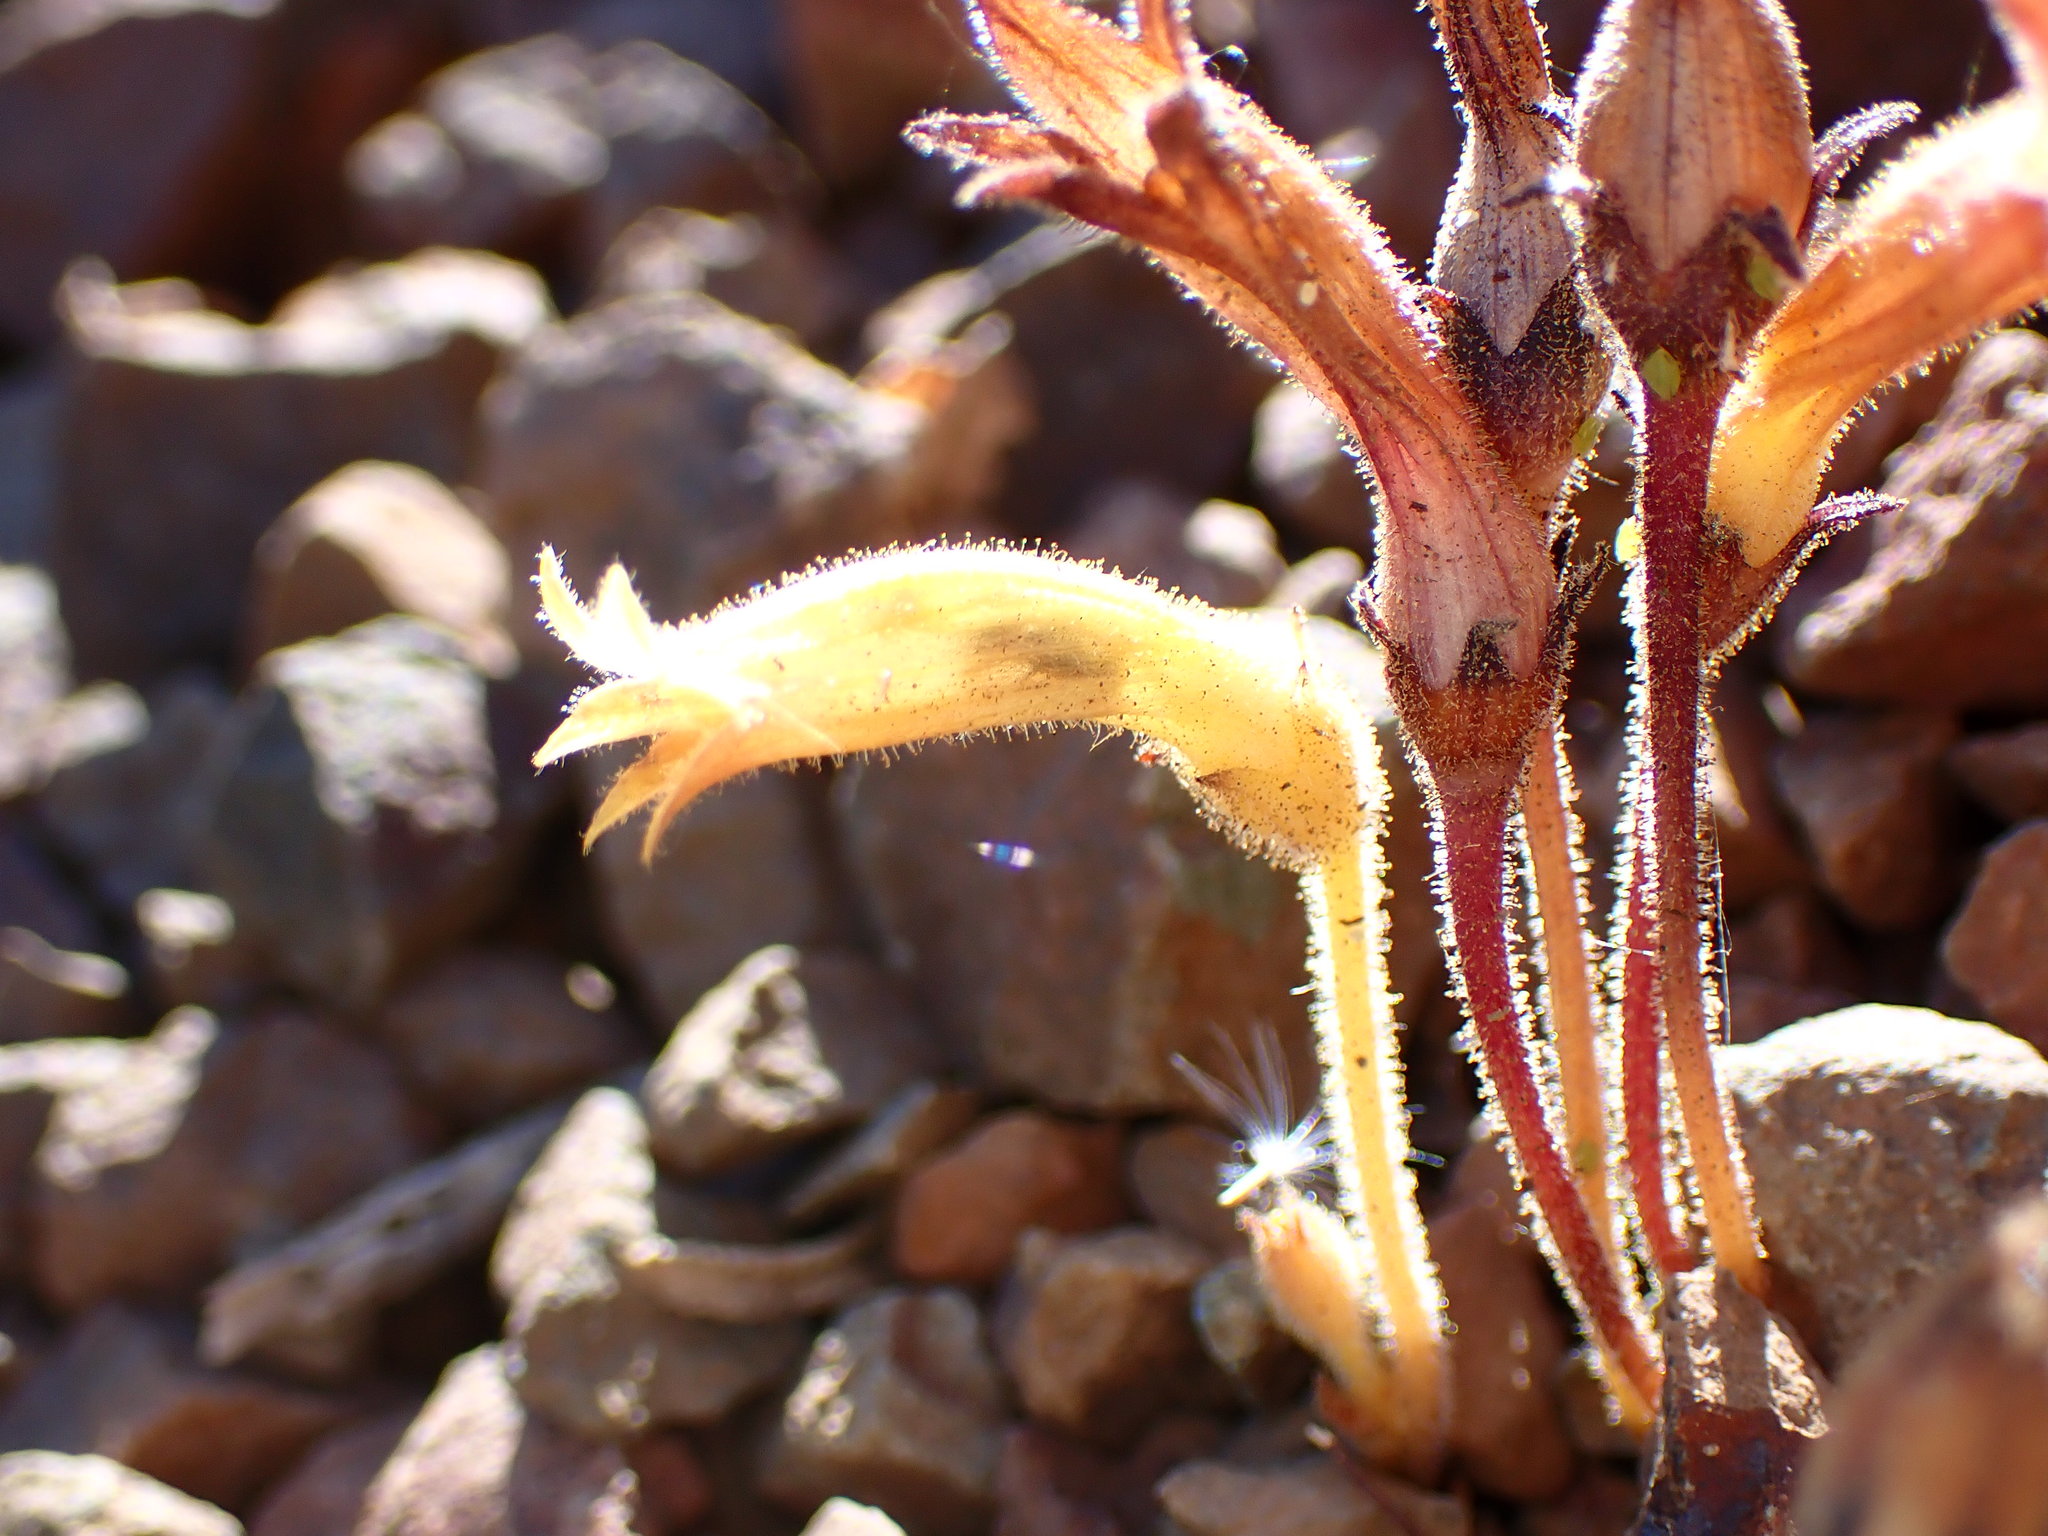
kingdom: Plantae
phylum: Tracheophyta
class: Magnoliopsida
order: Lamiales
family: Orobanchaceae
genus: Aphyllon
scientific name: Aphyllon franciscanum
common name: San francisco broomrape
